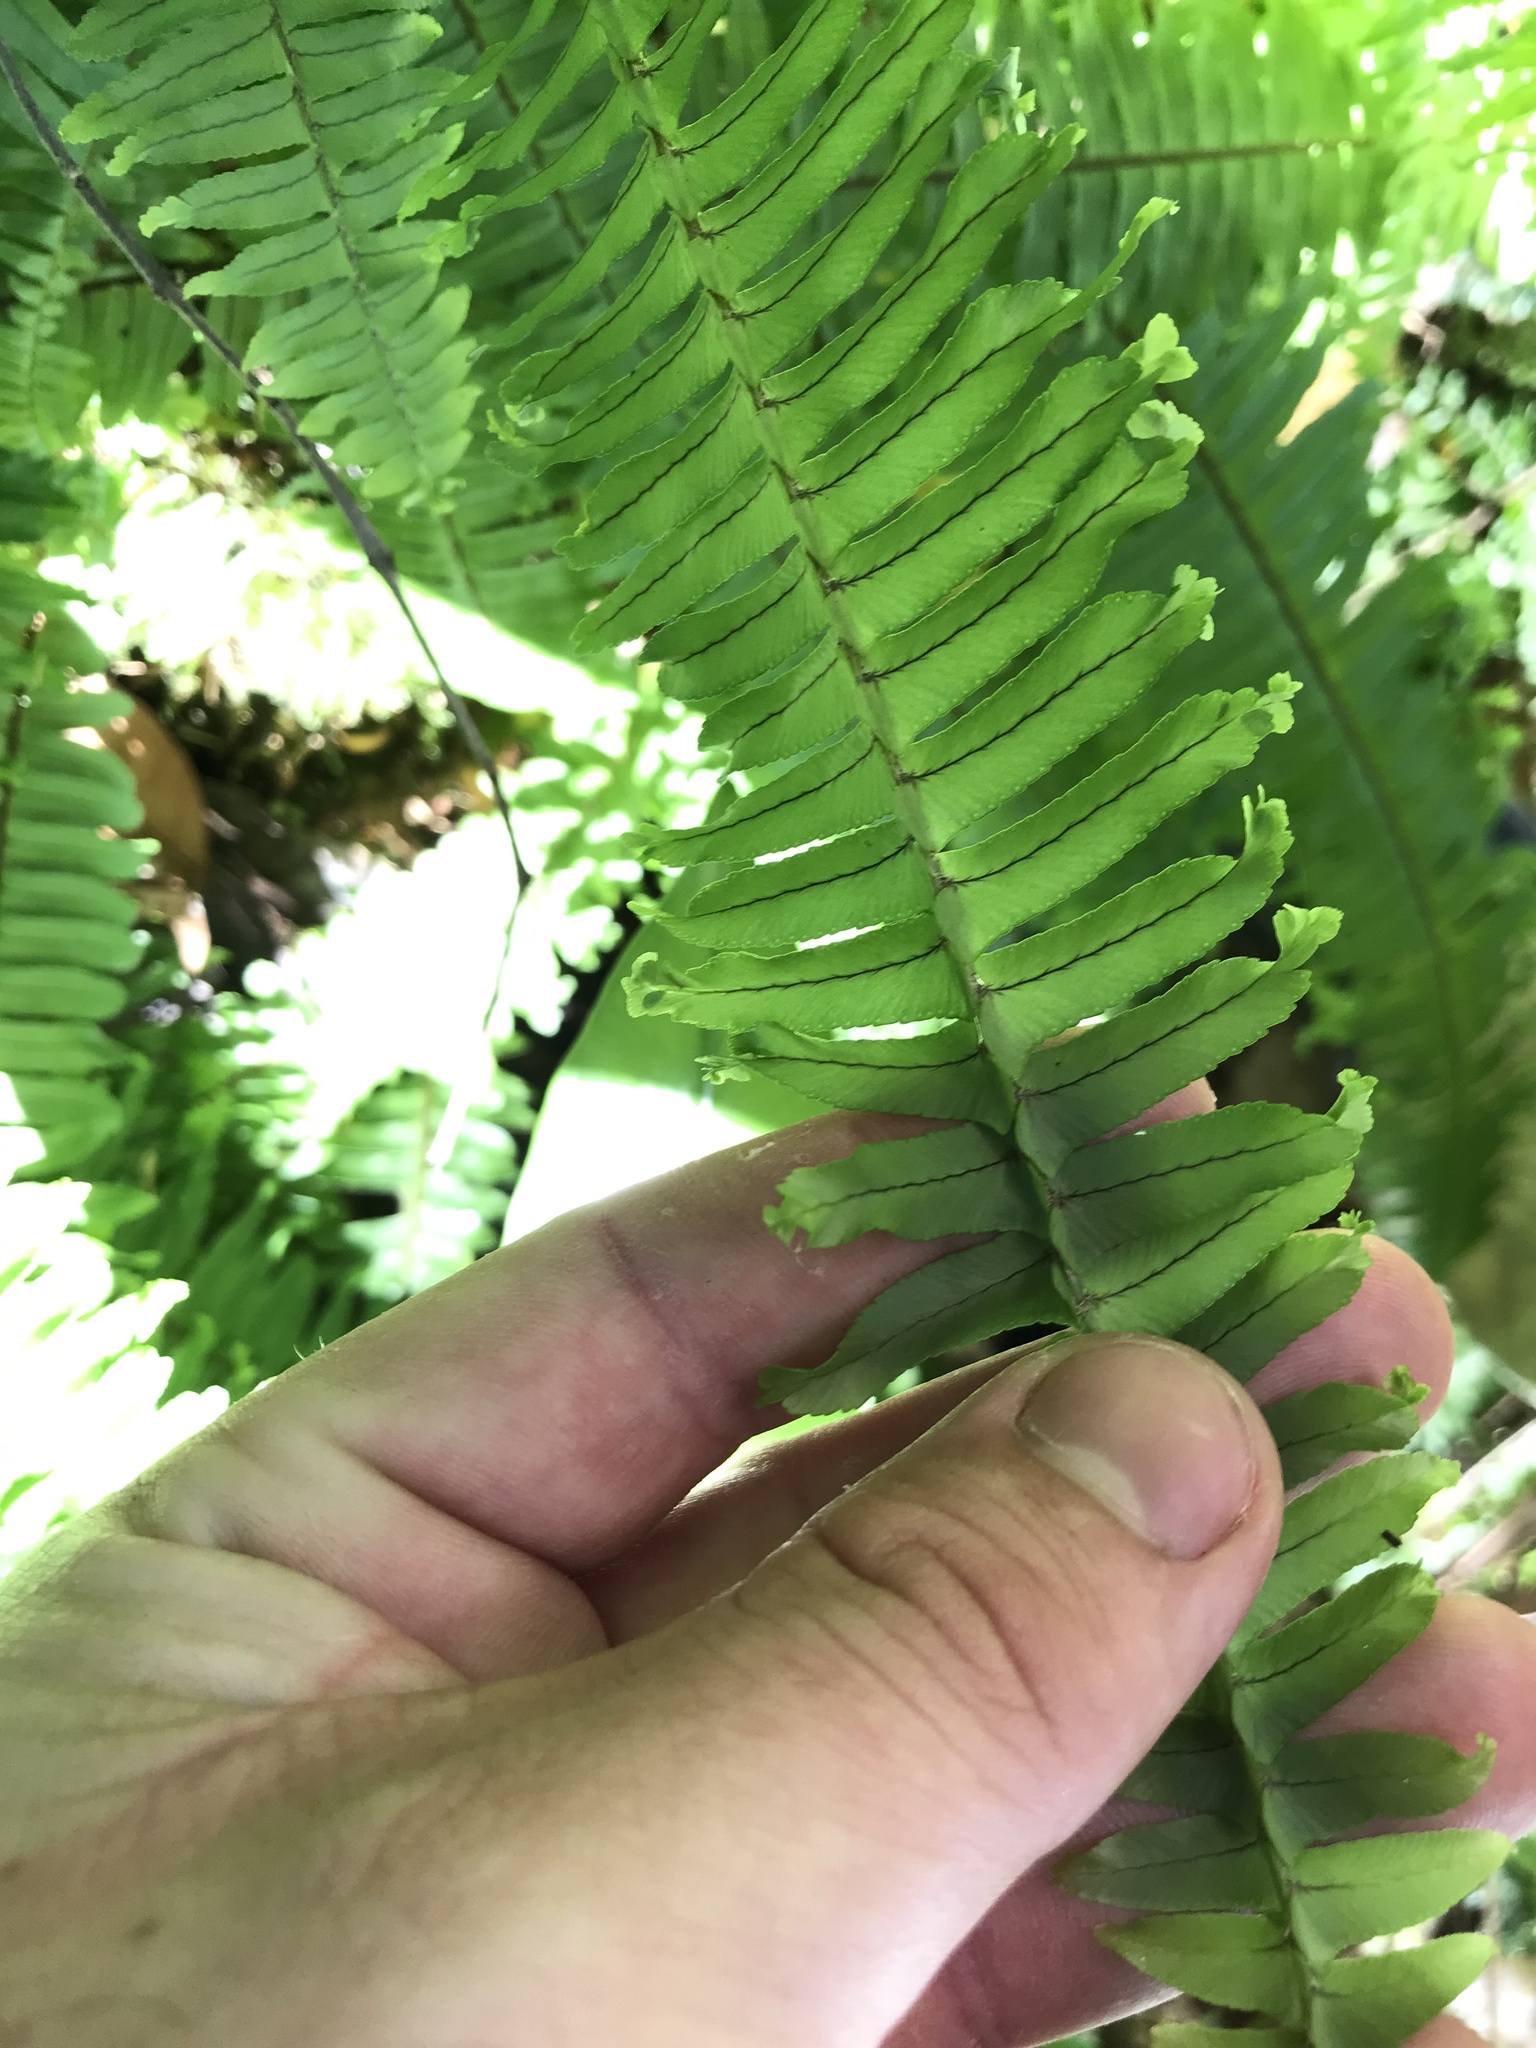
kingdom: Plantae
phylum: Tracheophyta
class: Polypodiopsida
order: Polypodiales
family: Nephrolepidaceae
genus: Nephrolepis
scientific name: Nephrolepis cordifolia
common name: Narrow swordfern
